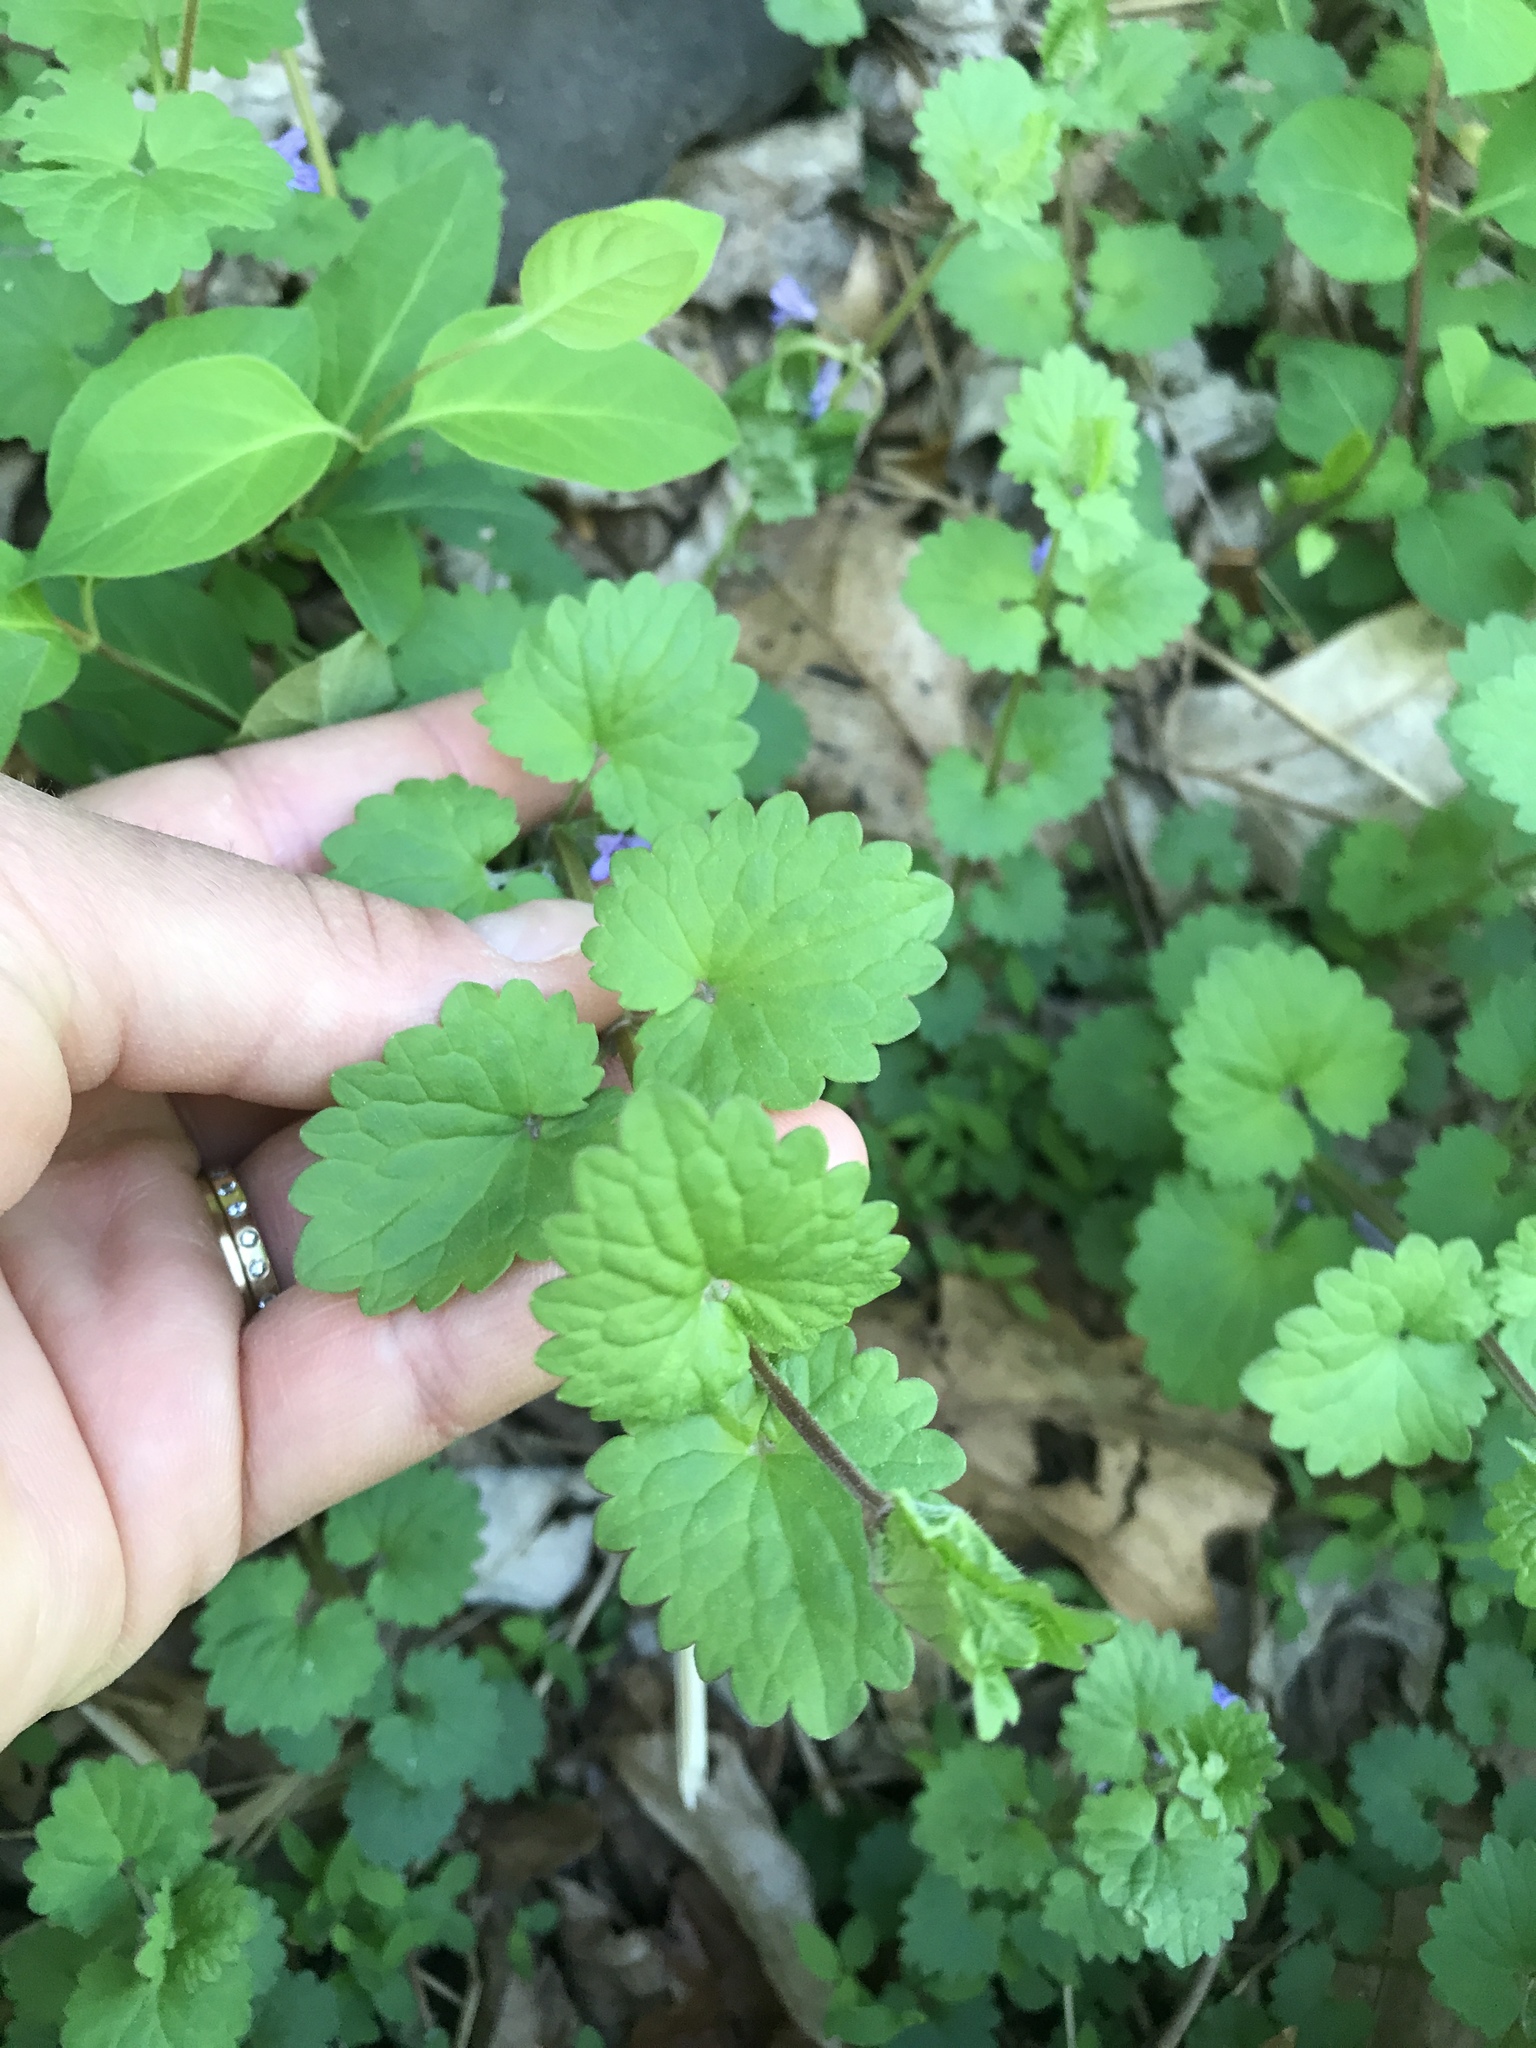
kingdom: Plantae
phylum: Tracheophyta
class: Magnoliopsida
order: Lamiales
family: Lamiaceae
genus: Glechoma
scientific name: Glechoma hederacea
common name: Ground ivy
